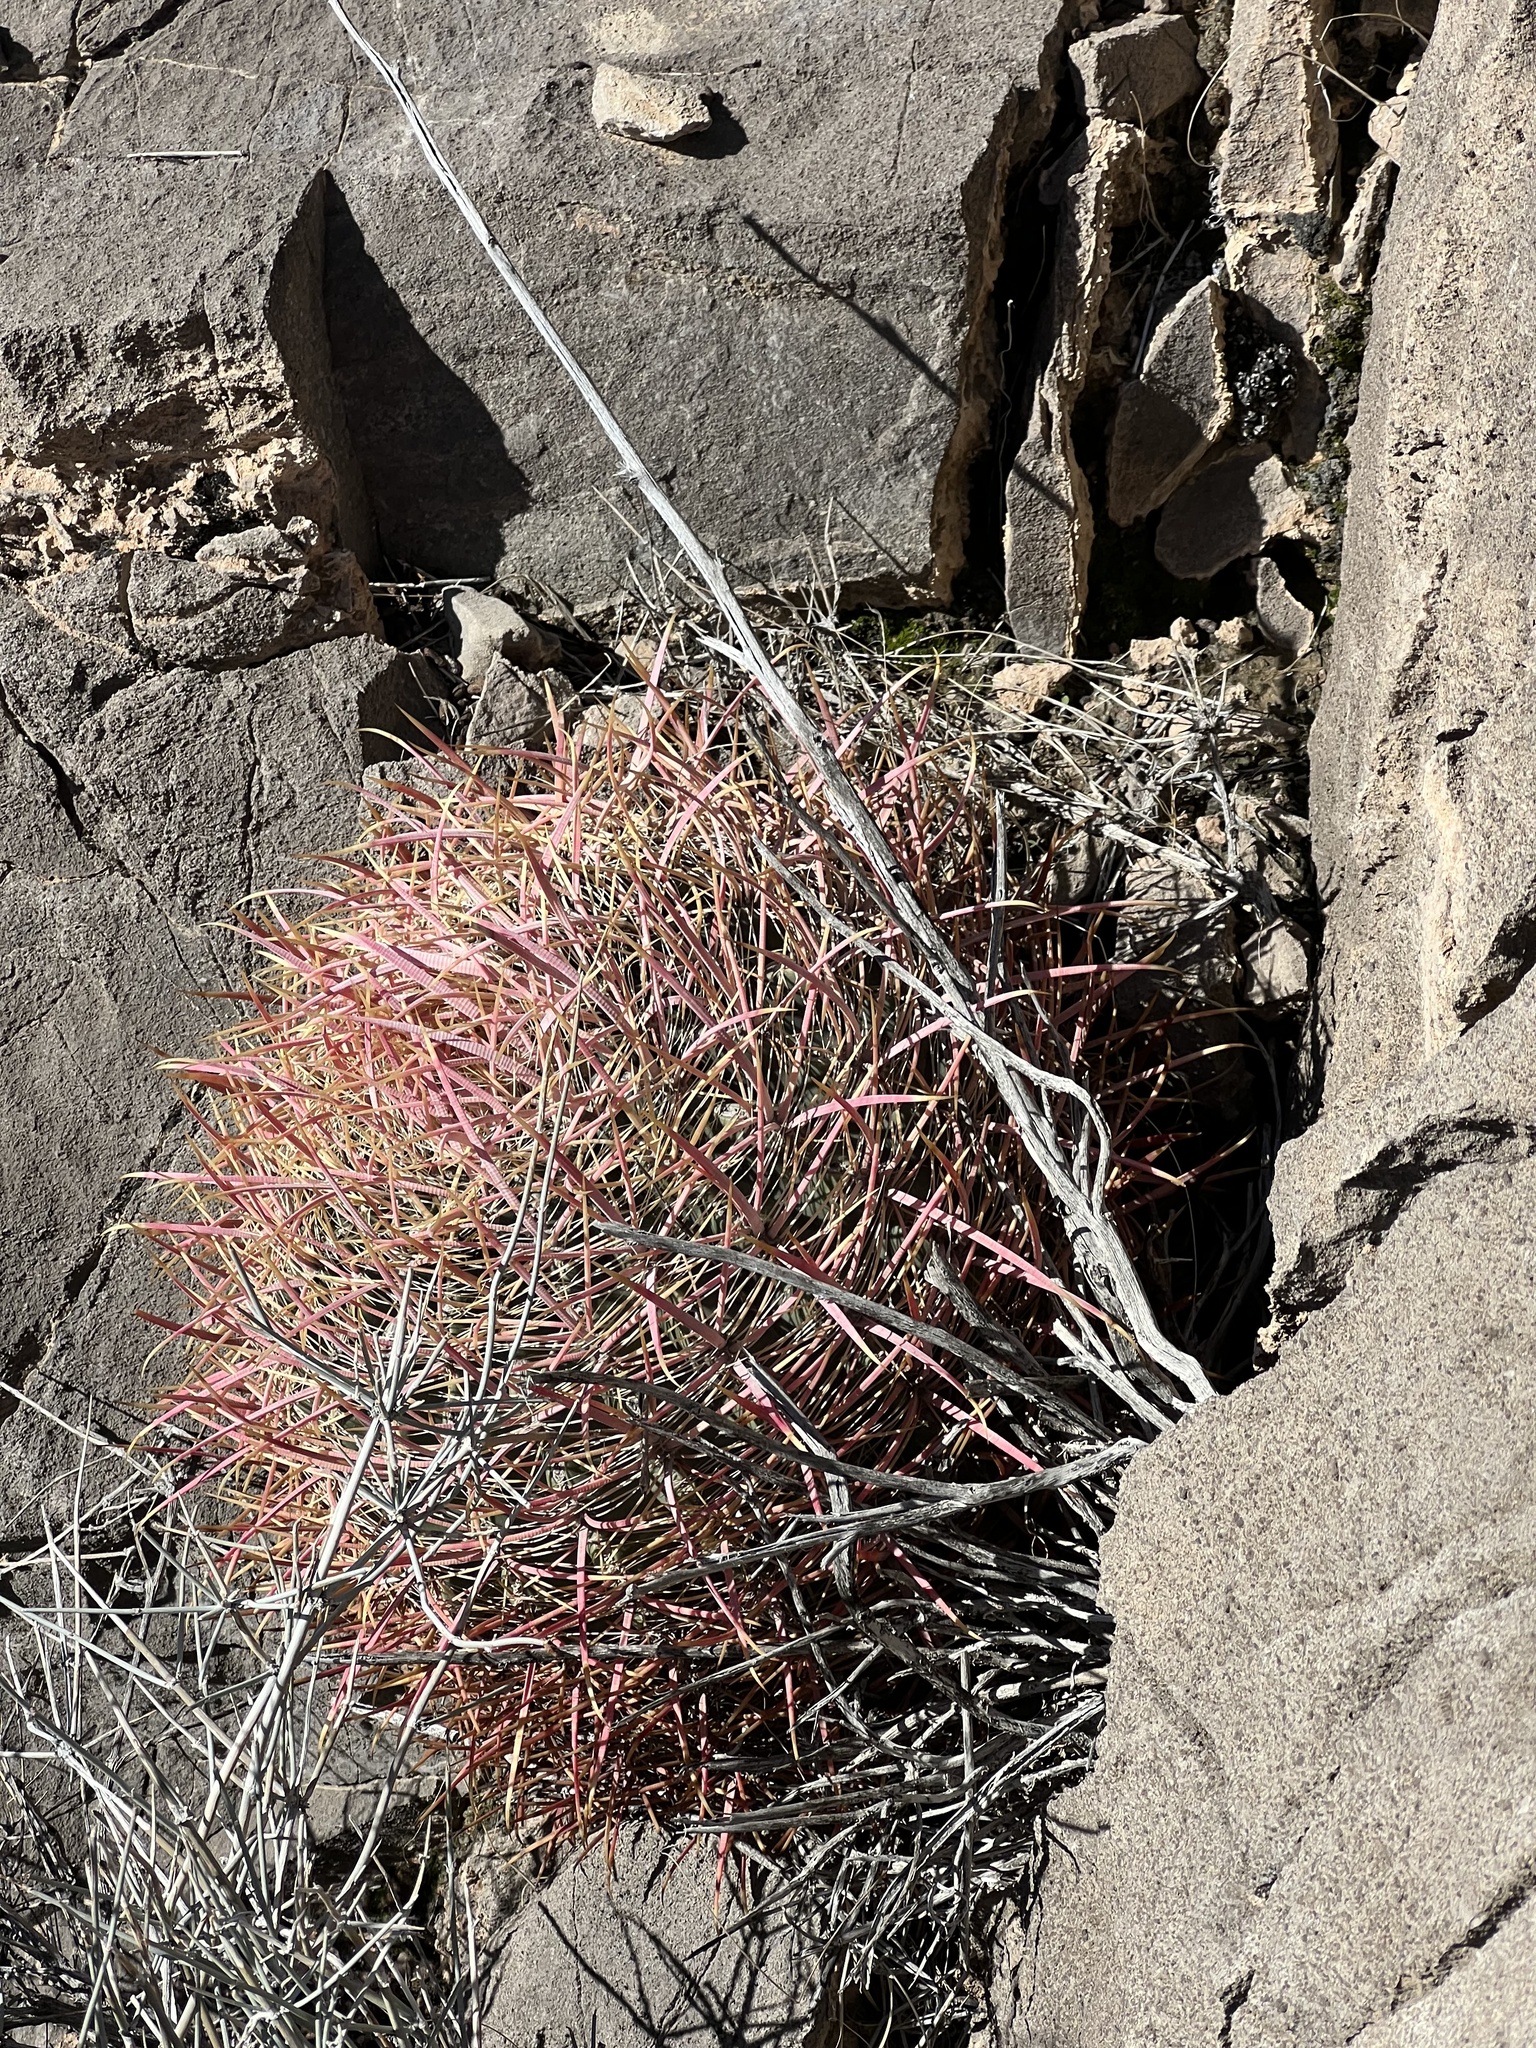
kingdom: Plantae
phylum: Tracheophyta
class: Magnoliopsida
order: Caryophyllales
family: Cactaceae
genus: Ferocactus
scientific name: Ferocactus cylindraceus
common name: California barrel cactus
